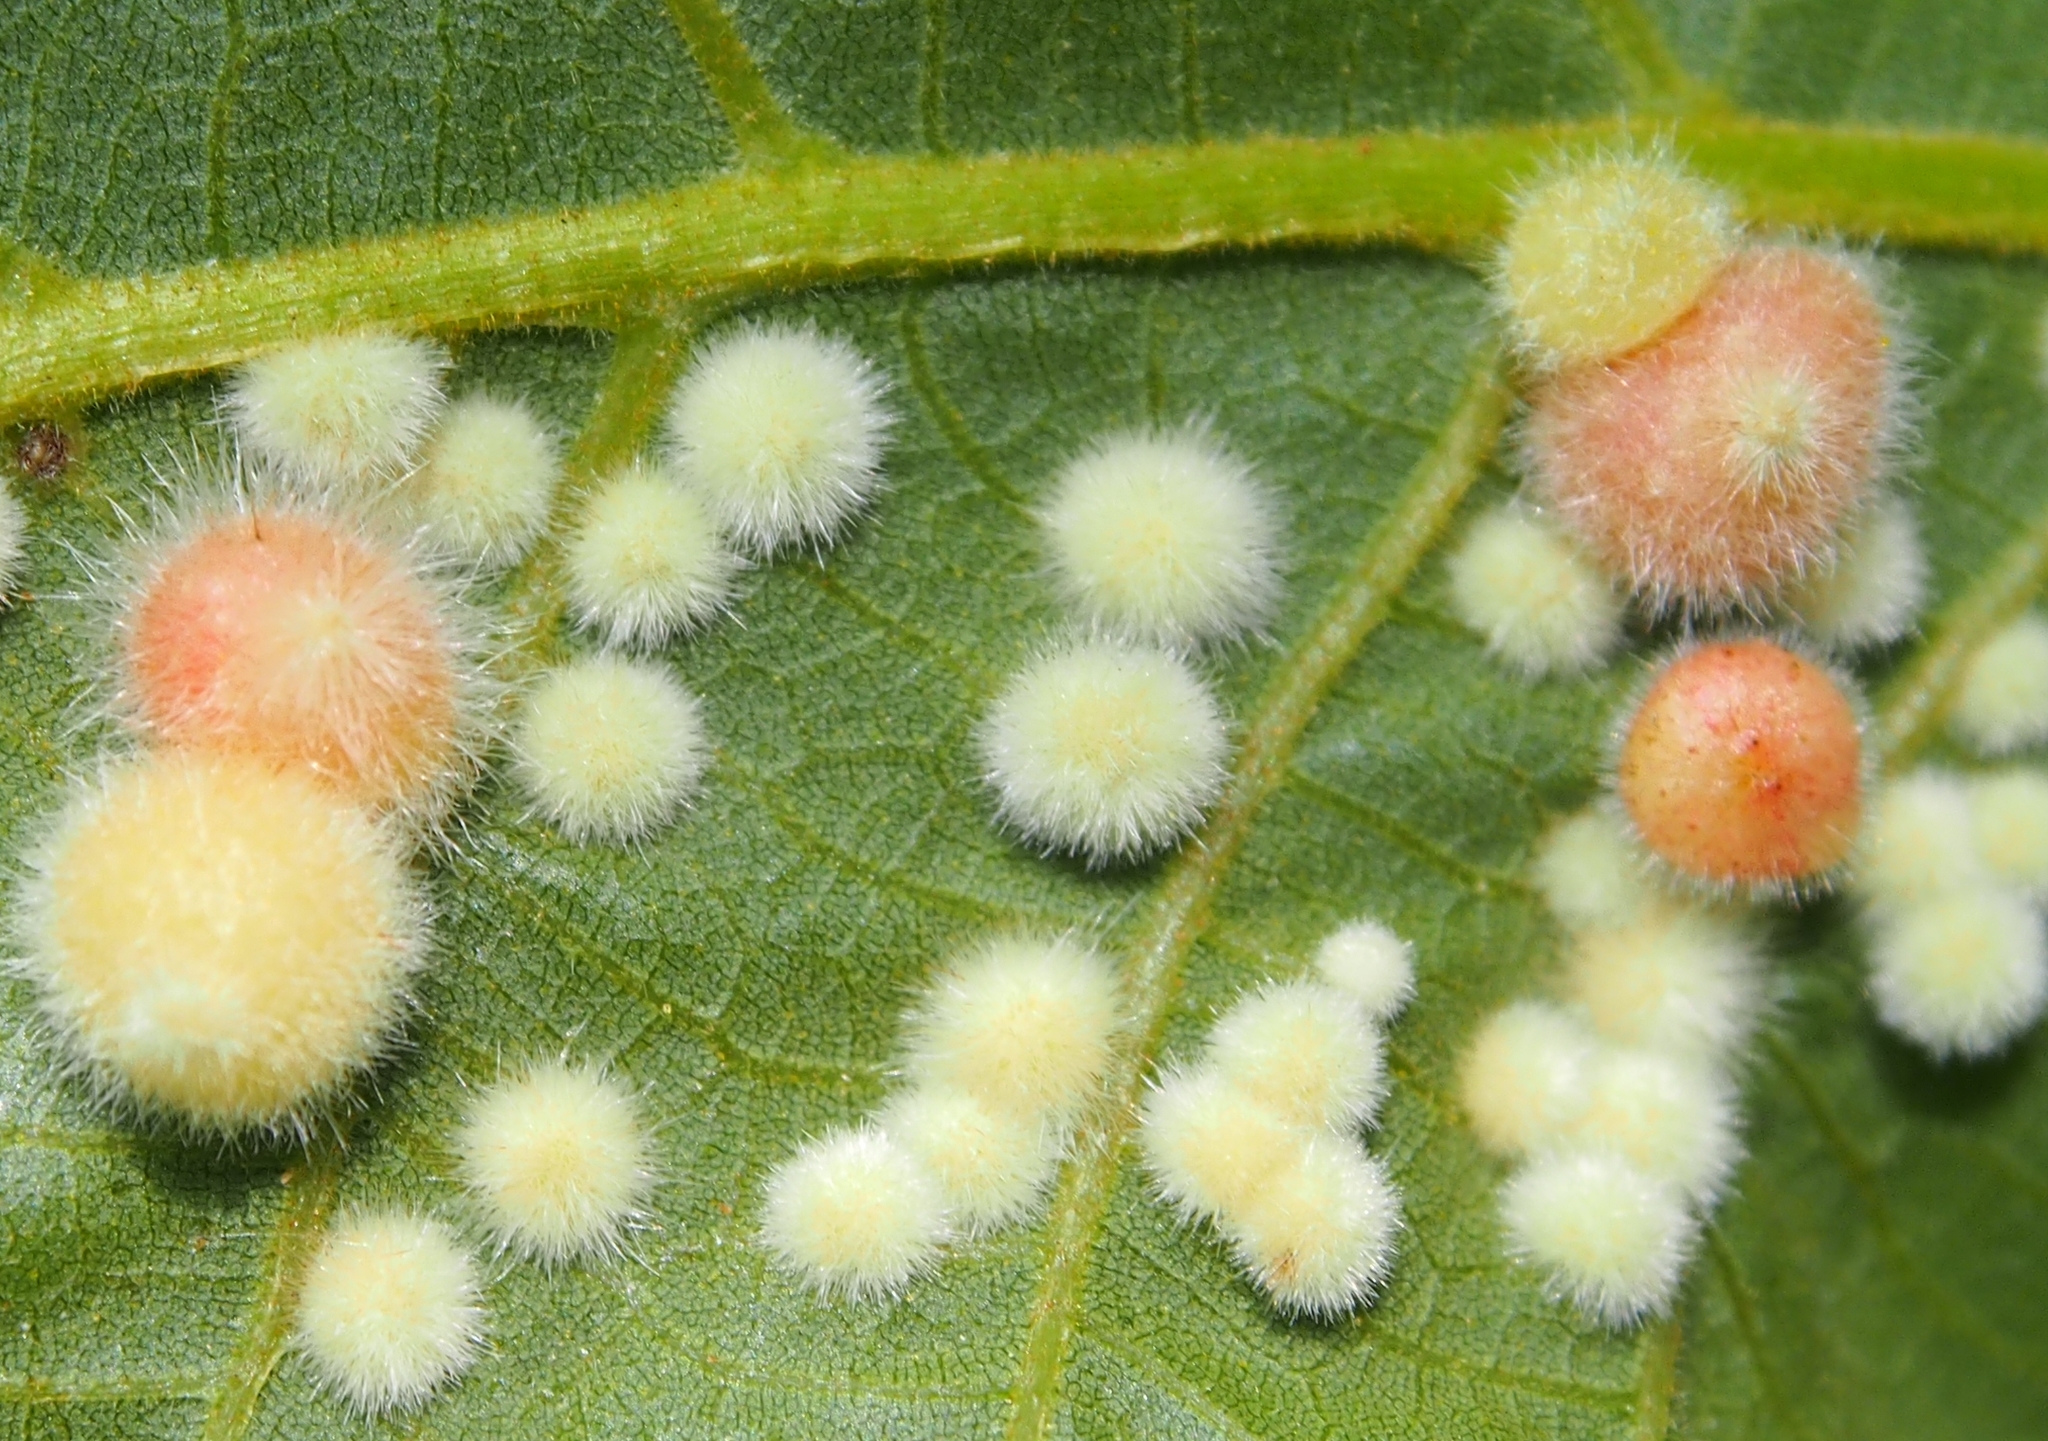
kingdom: Animalia
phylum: Arthropoda
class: Insecta
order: Diptera
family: Cecidomyiidae
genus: Caryomyia
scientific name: Caryomyia holotricha
